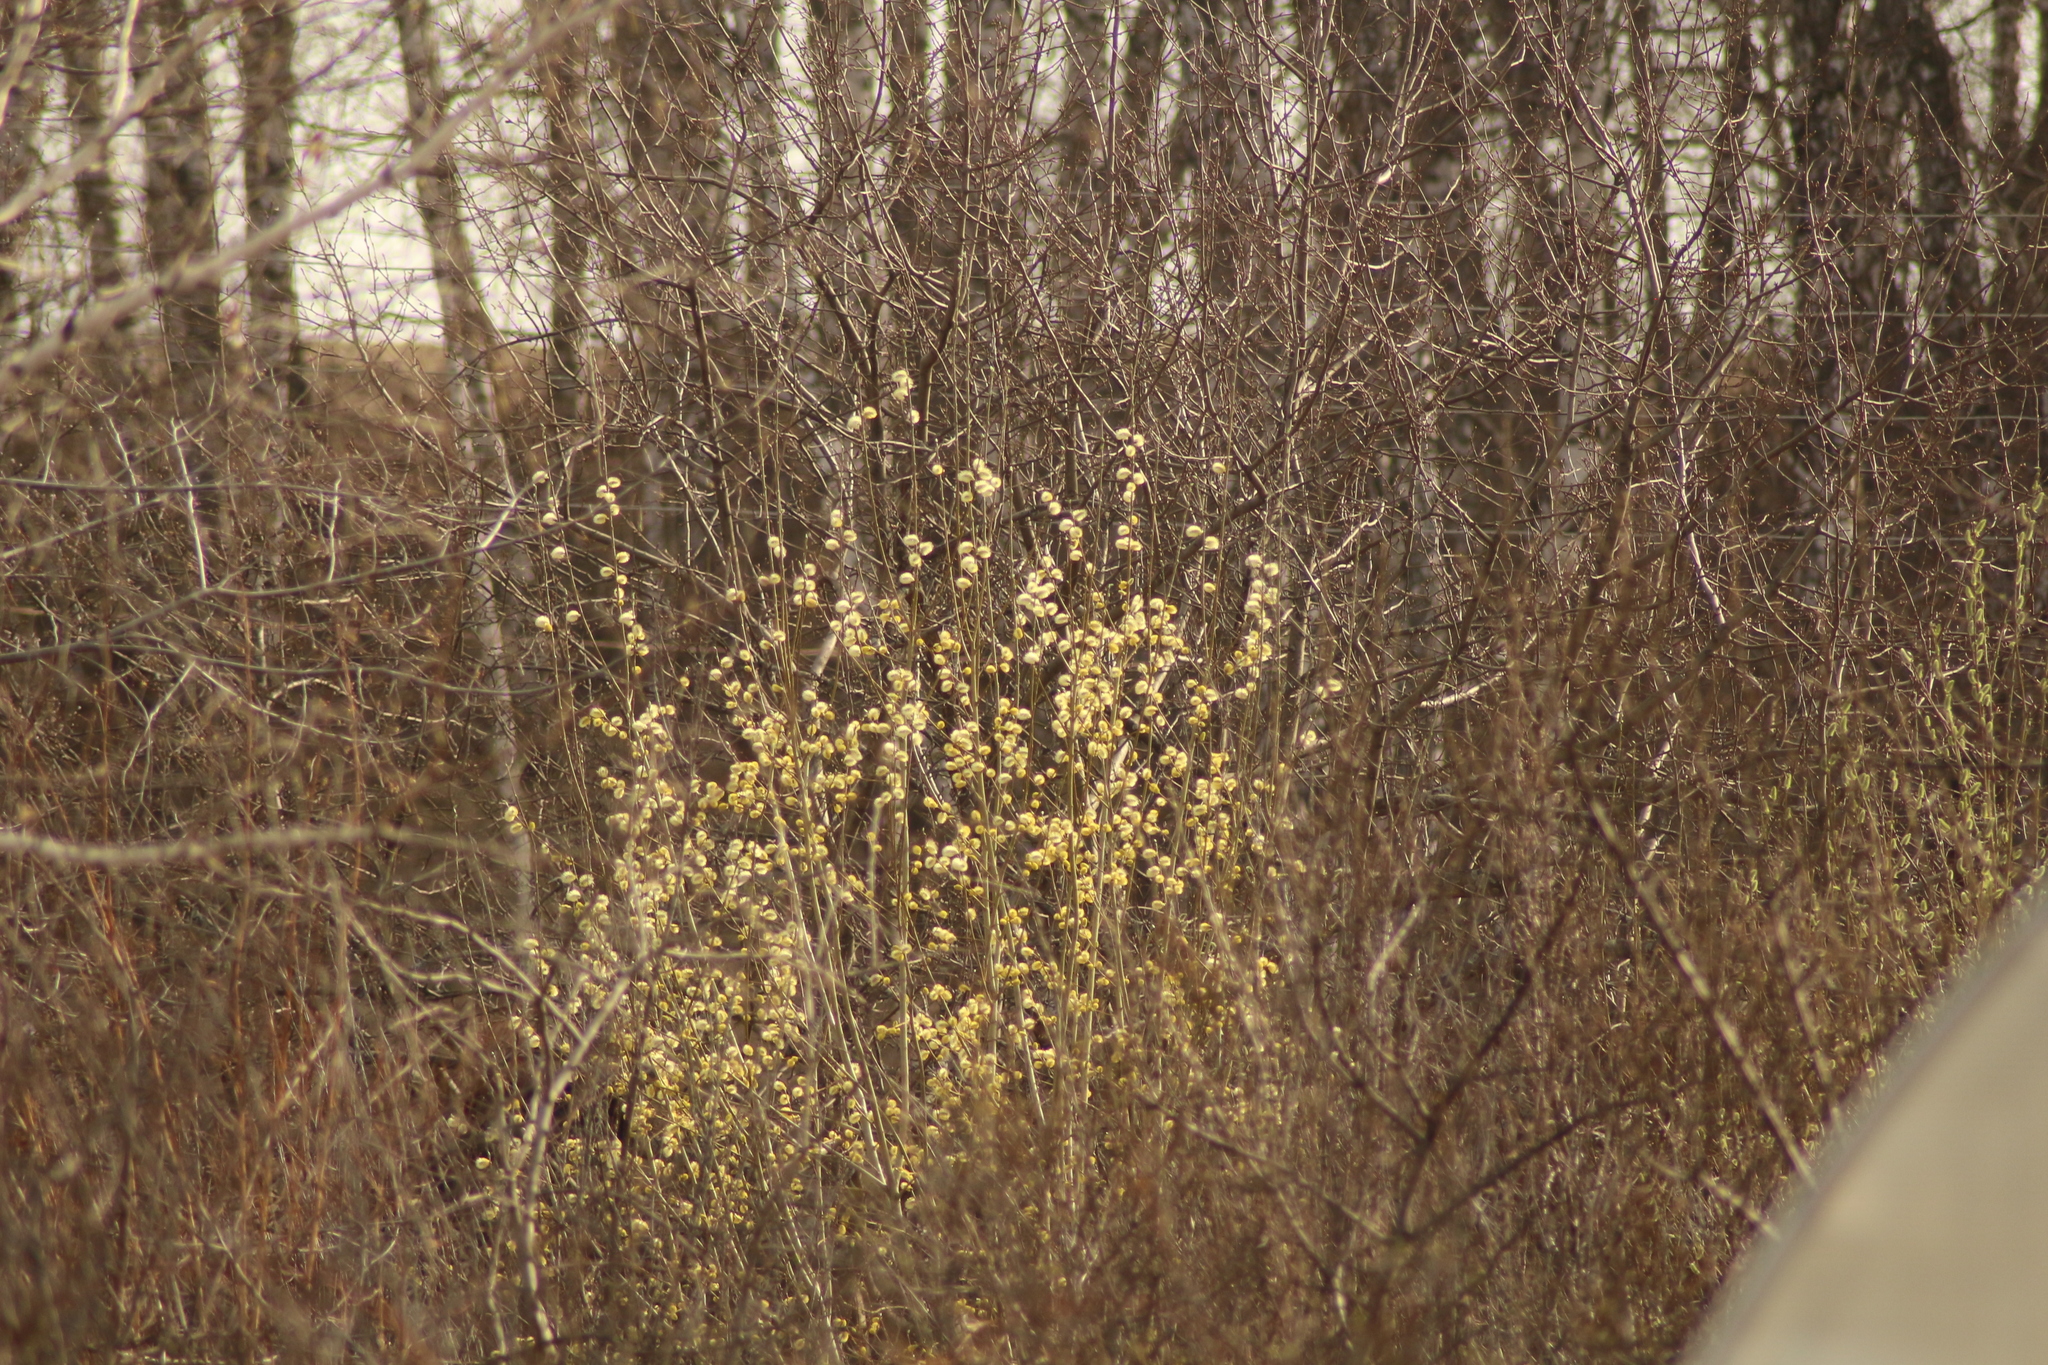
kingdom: Plantae
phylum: Tracheophyta
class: Magnoliopsida
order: Malpighiales
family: Salicaceae
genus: Salix
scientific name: Salix caprea
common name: Goat willow
